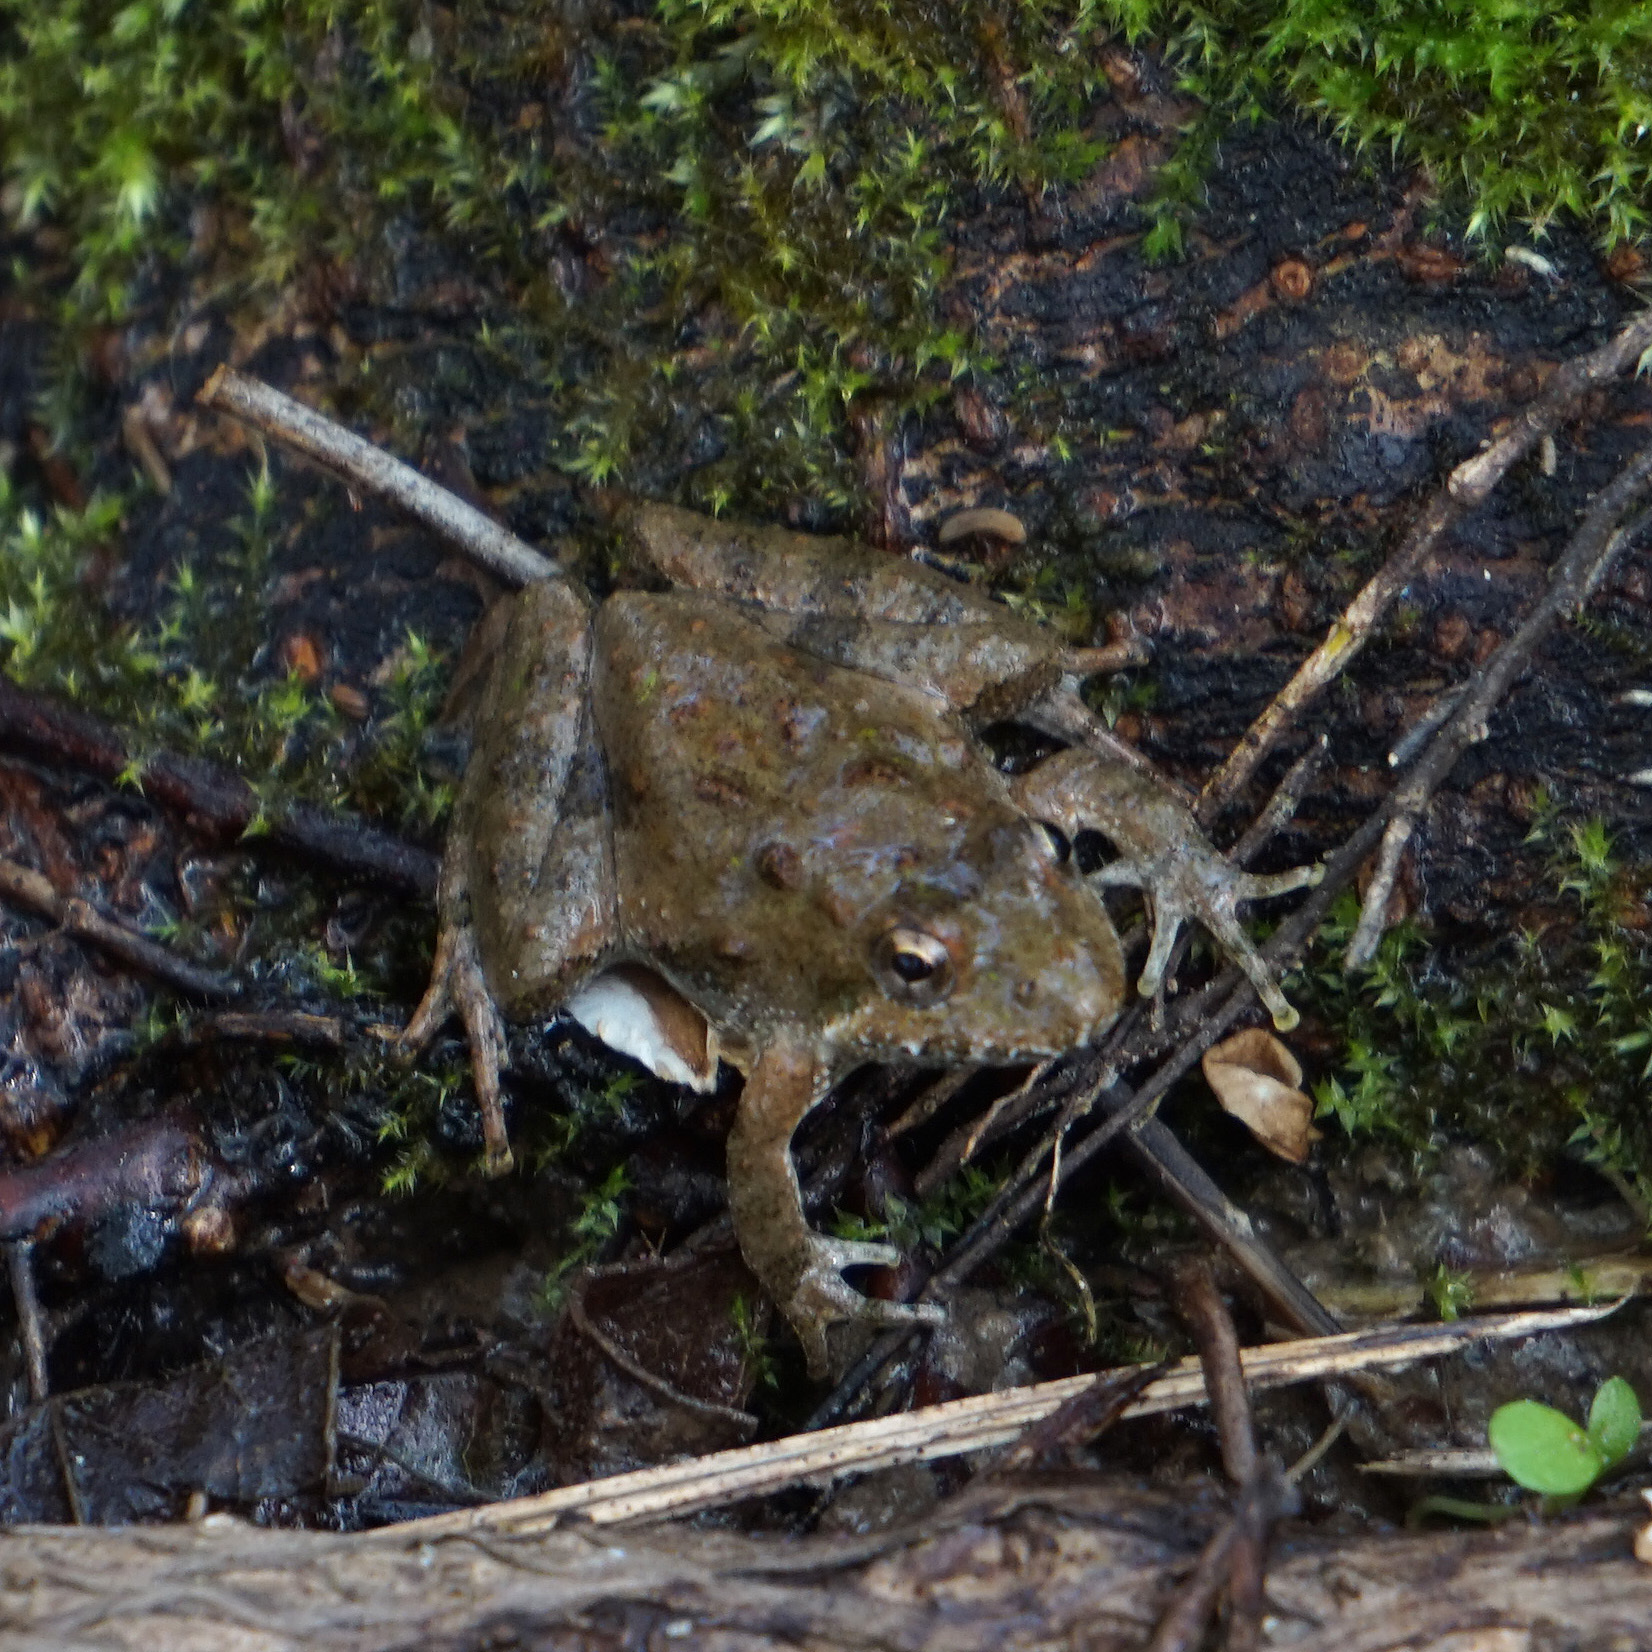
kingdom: Animalia
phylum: Chordata
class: Amphibia
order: Anura
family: Hylidae
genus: Acris
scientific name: Acris crepitans
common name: Northern cricket frog
